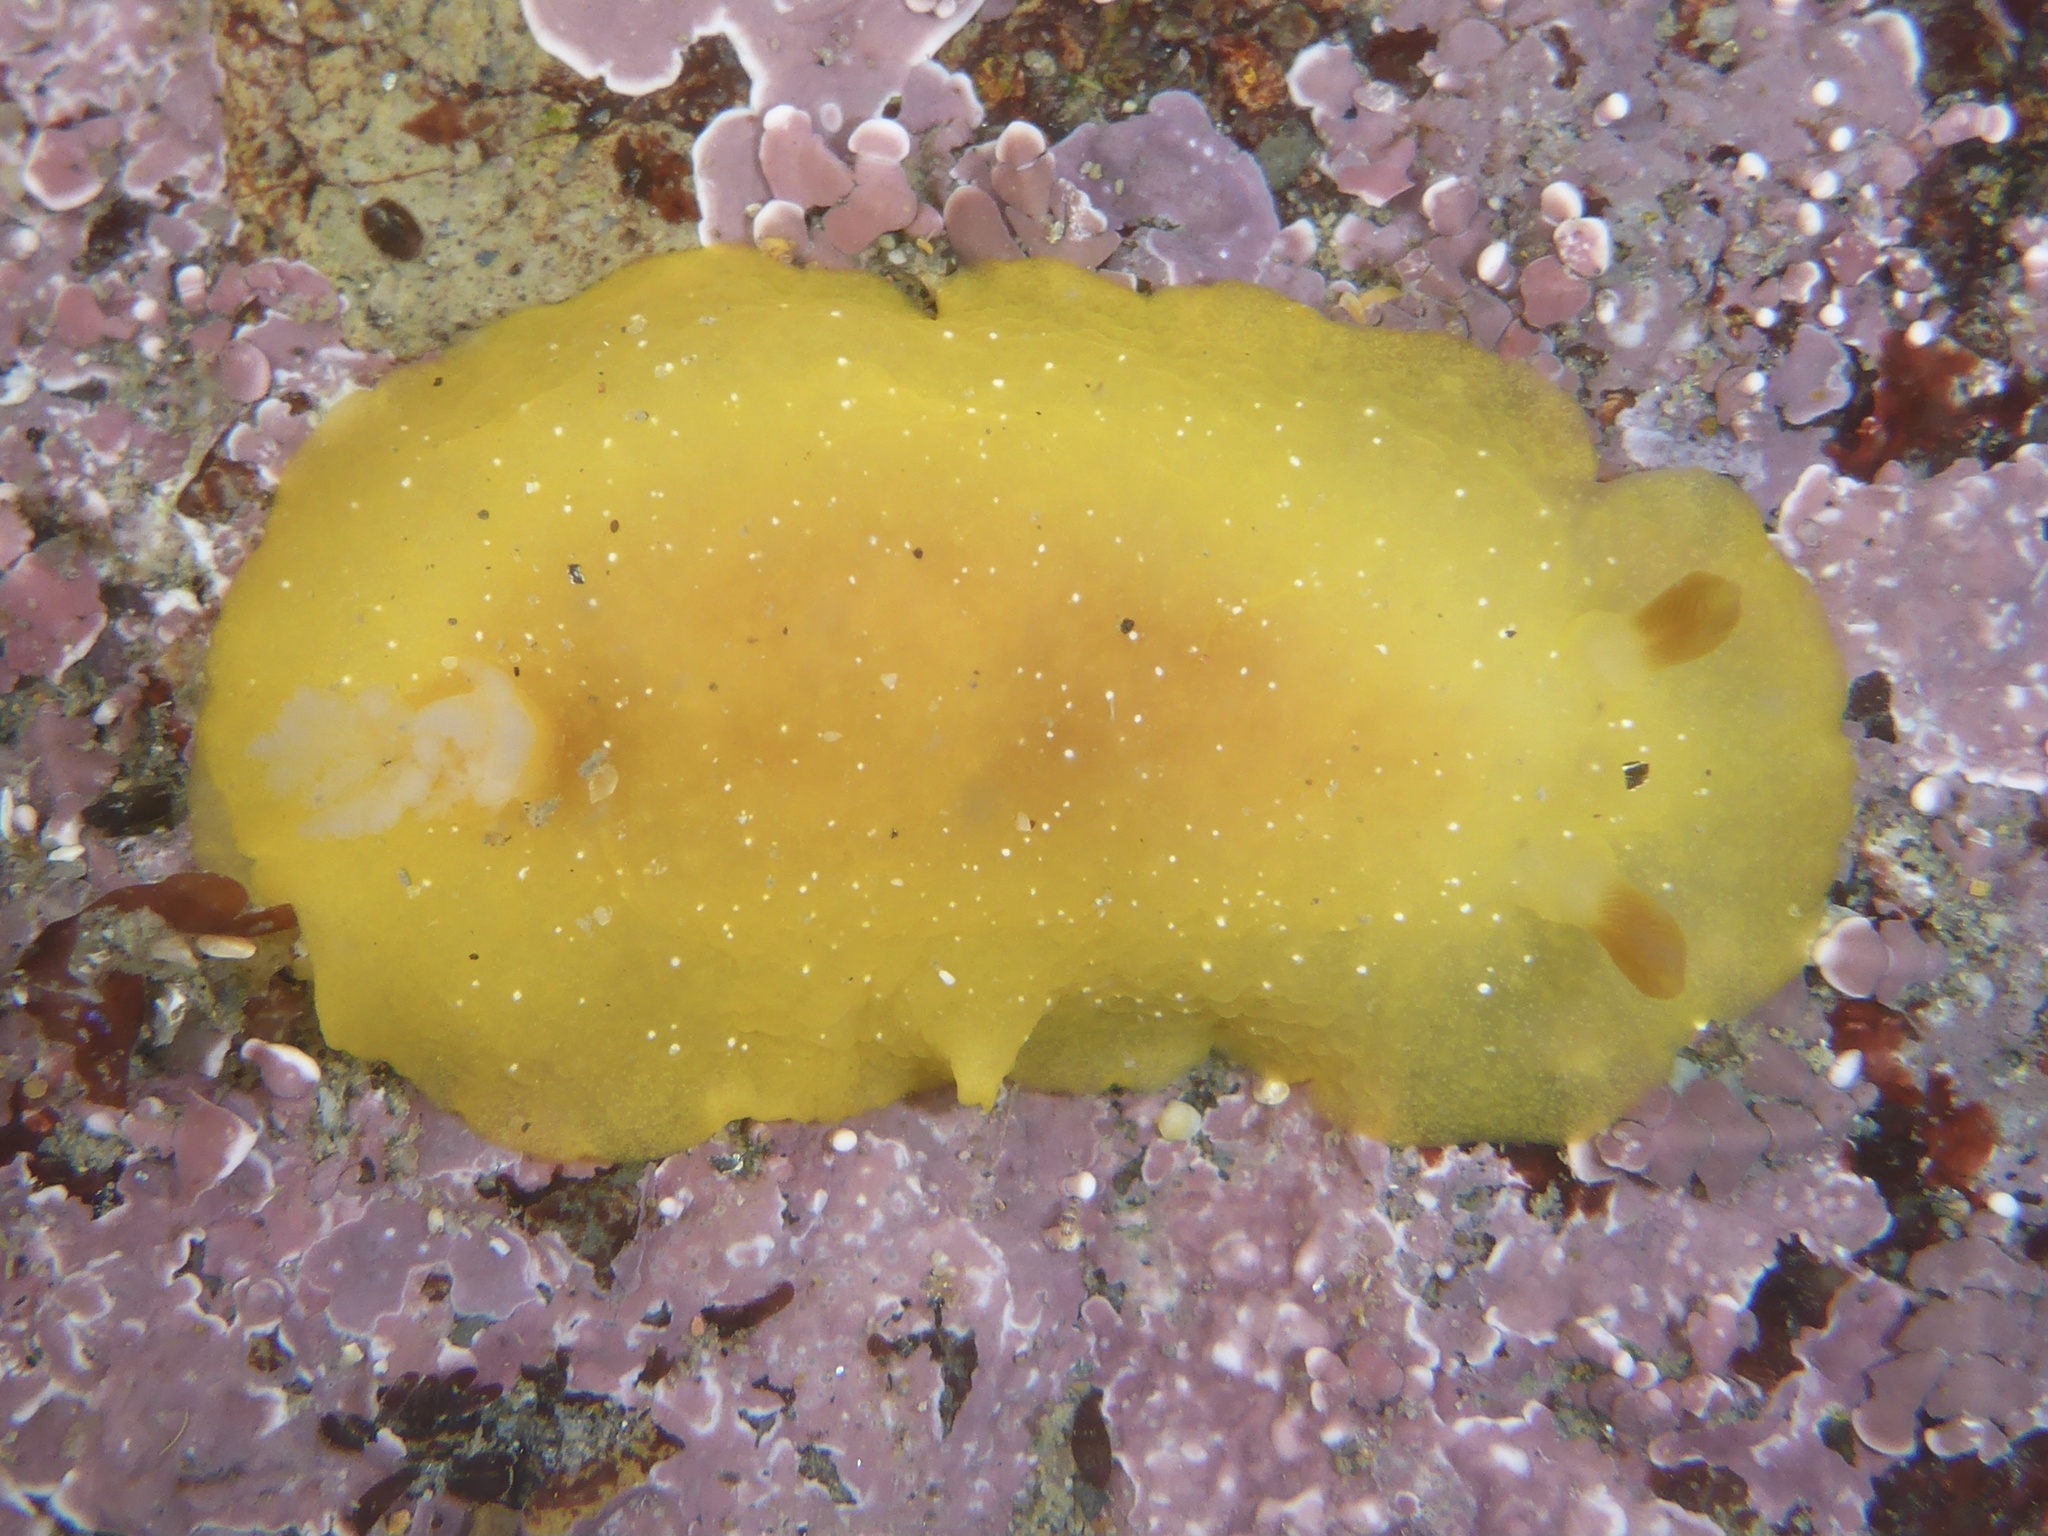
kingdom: Animalia
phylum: Mollusca
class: Gastropoda
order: Nudibranchia
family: Dendrodorididae
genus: Doriopsilla
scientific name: Doriopsilla fulva
